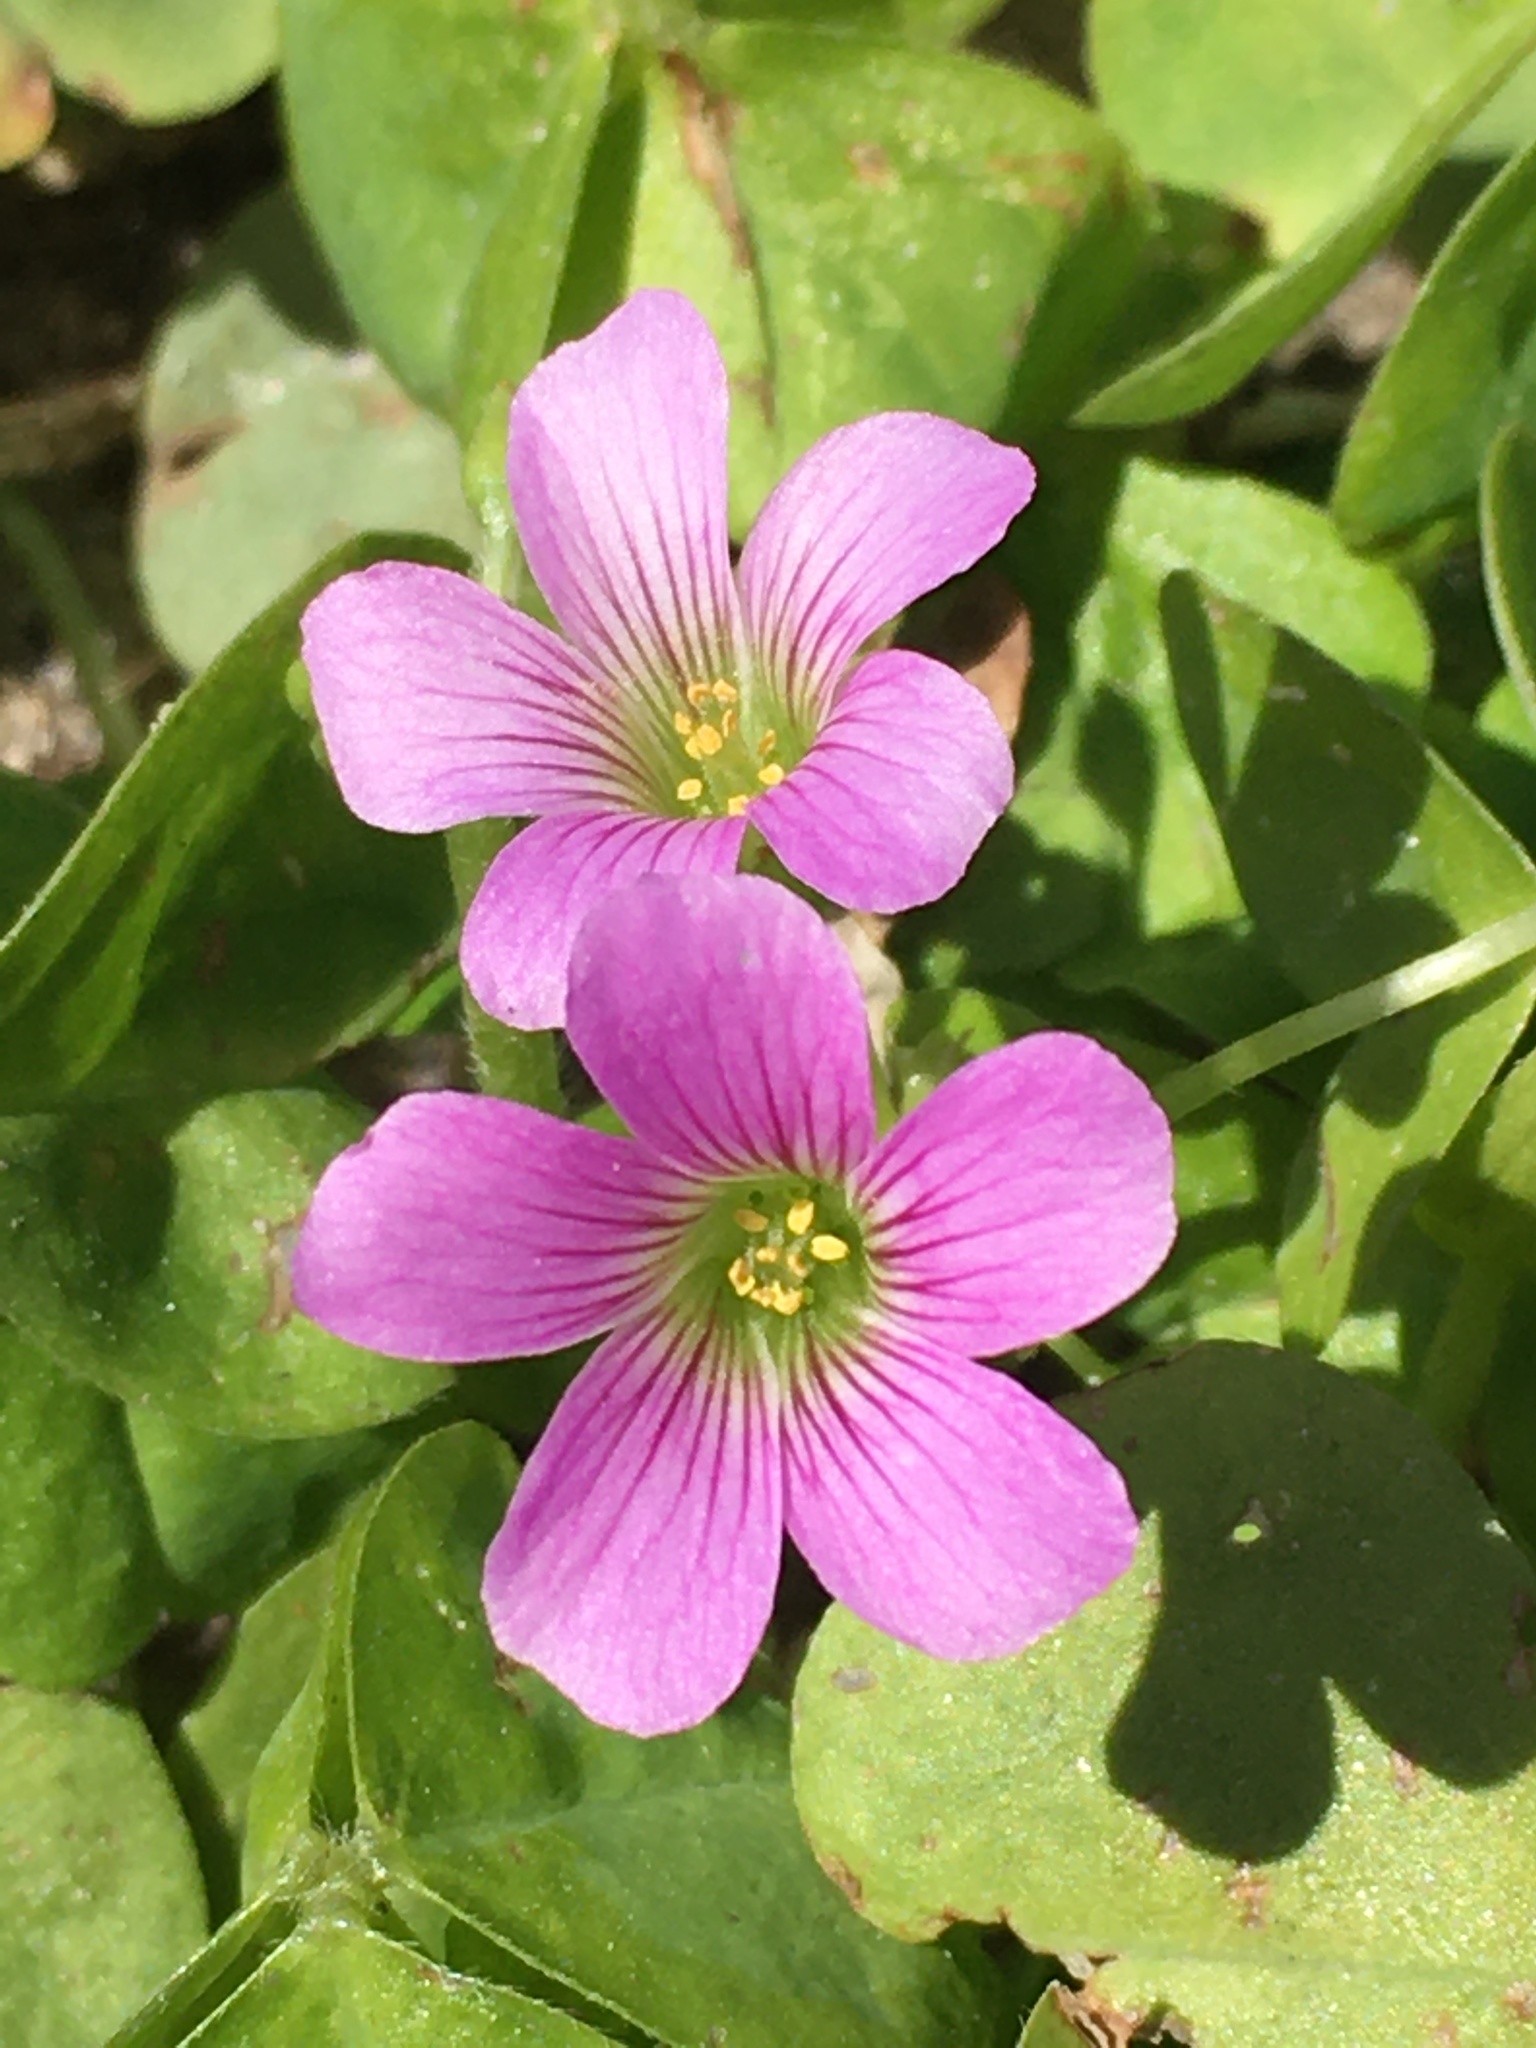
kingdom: Plantae
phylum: Tracheophyta
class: Magnoliopsida
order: Oxalidales
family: Oxalidaceae
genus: Oxalis
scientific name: Oxalis debilis
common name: Large-flowered pink-sorrel
